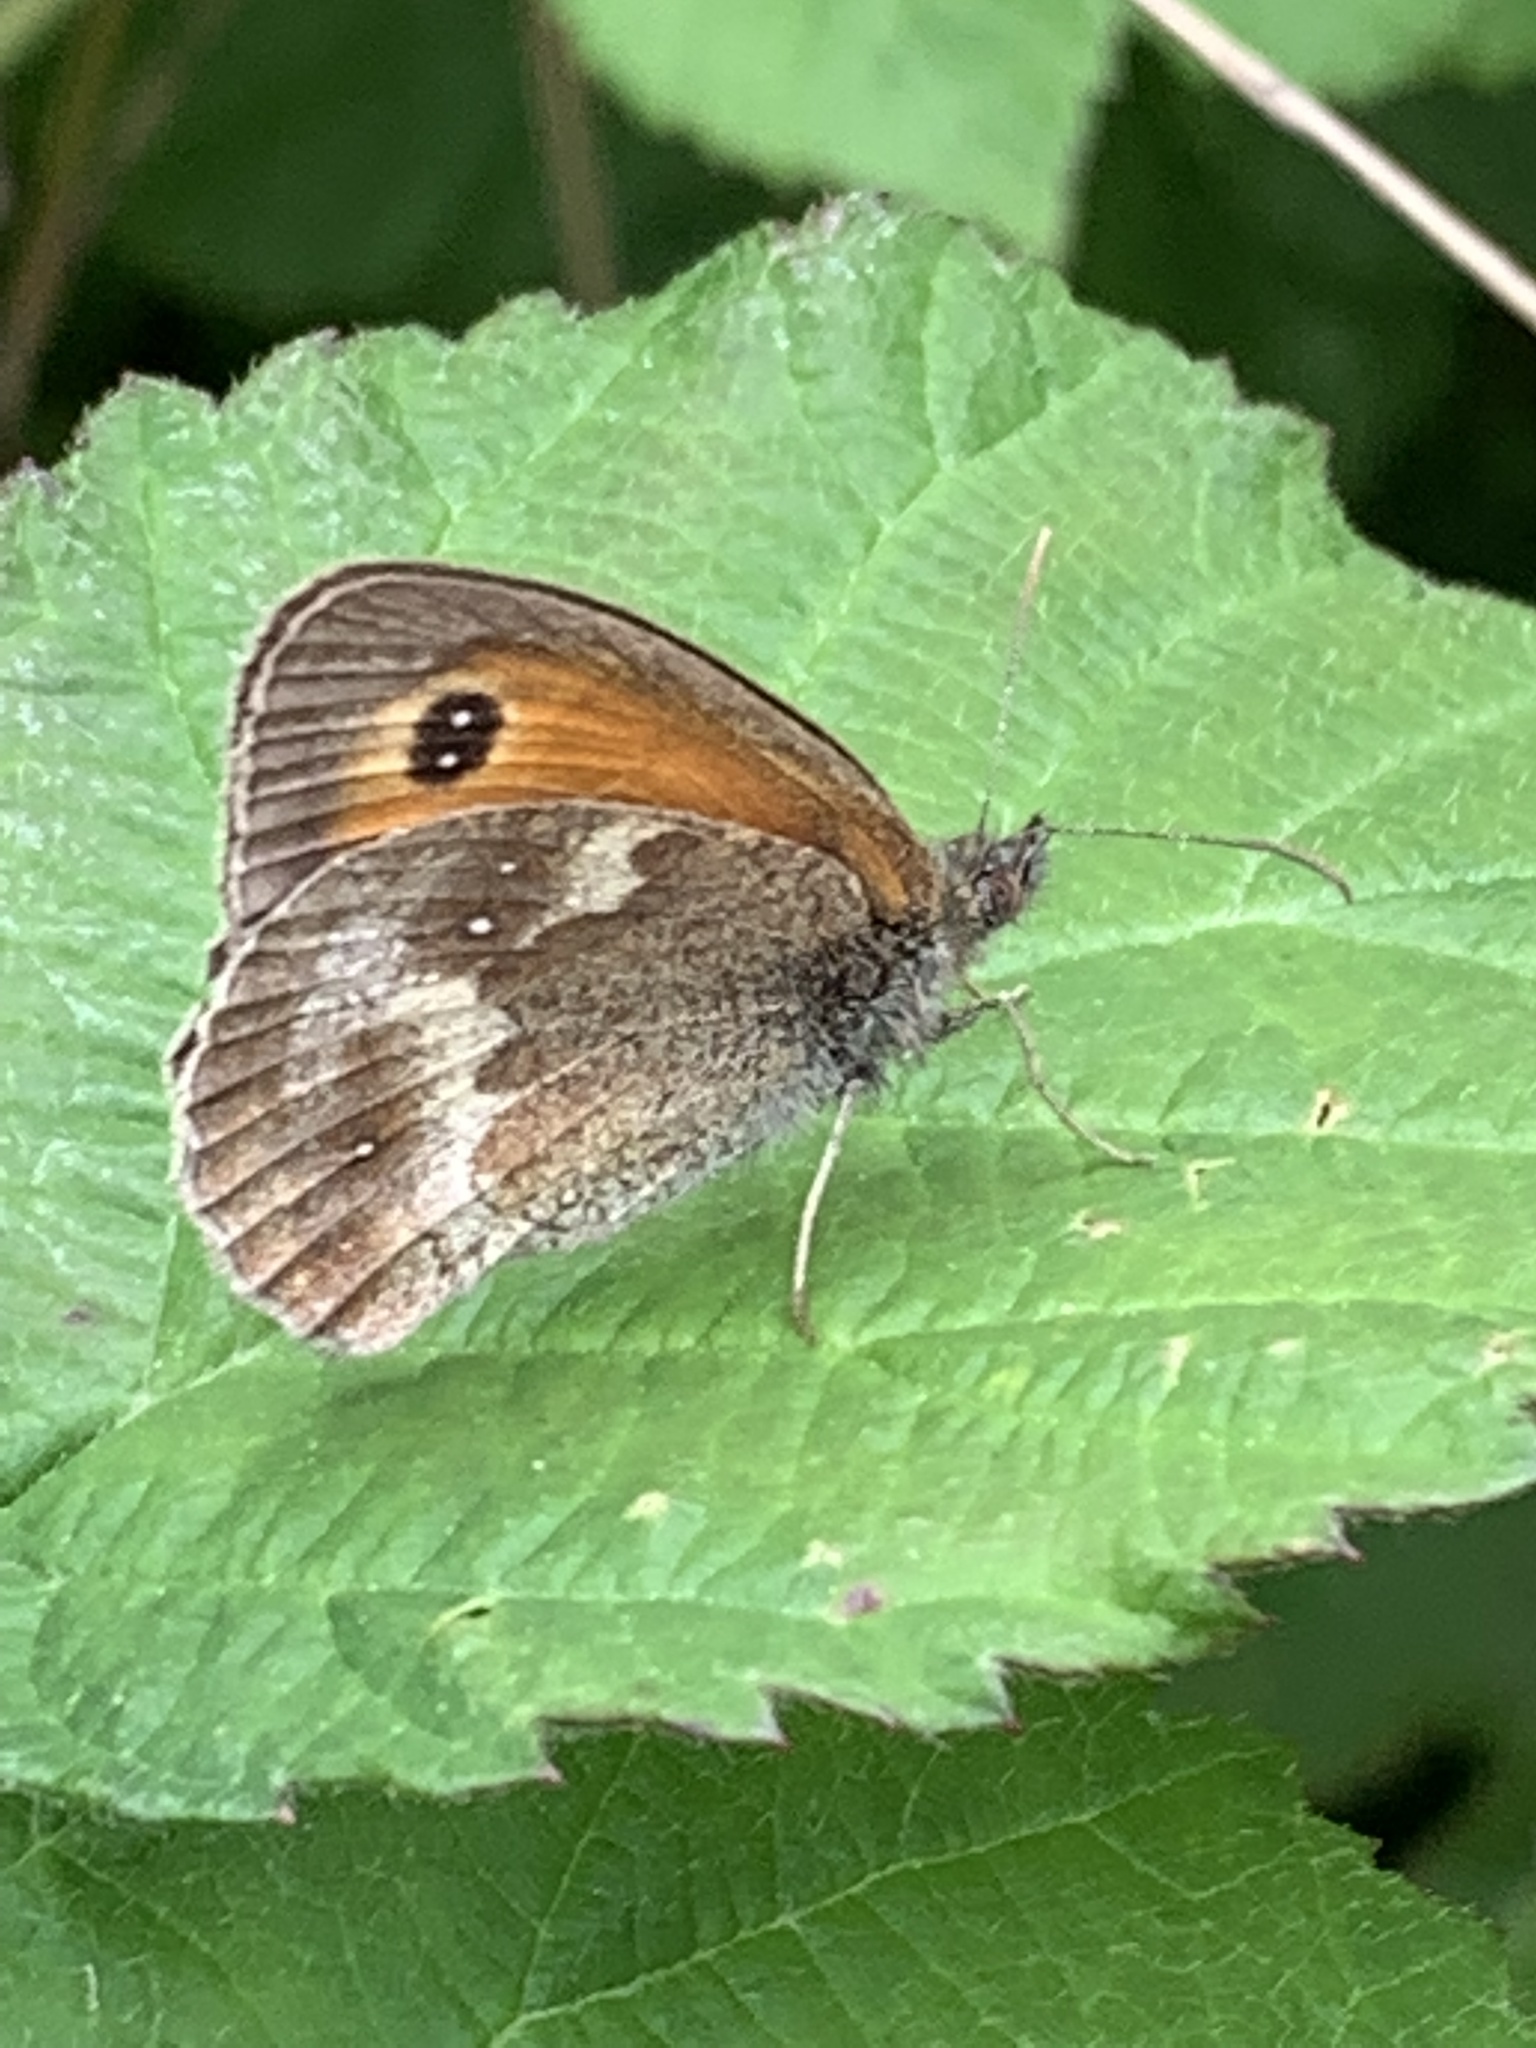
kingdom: Animalia
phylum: Arthropoda
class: Insecta
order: Lepidoptera
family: Nymphalidae
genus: Pyronia
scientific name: Pyronia tithonus
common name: Gatekeeper
